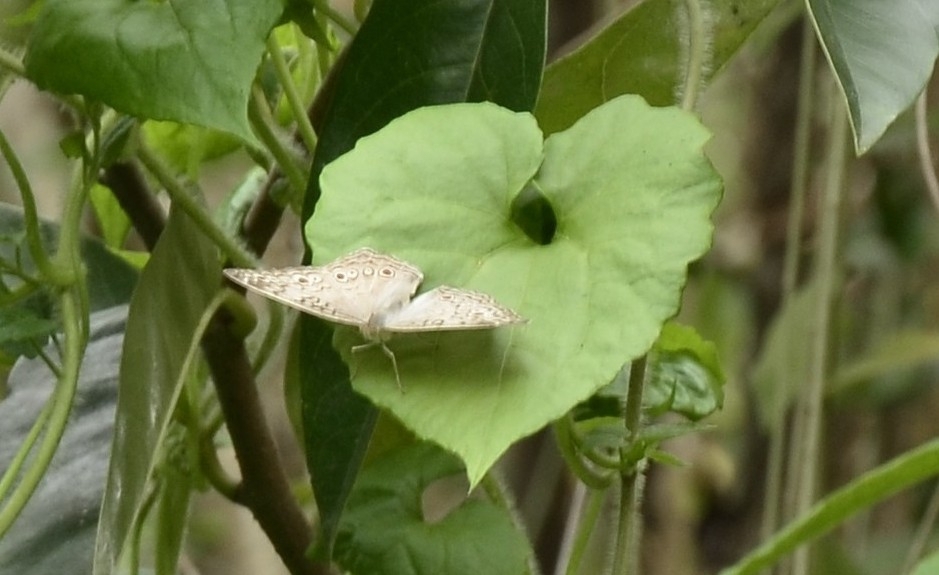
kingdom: Animalia
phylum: Arthropoda
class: Insecta
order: Lepidoptera
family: Nymphalidae
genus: Junonia
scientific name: Junonia atlites
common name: Grey pansy
